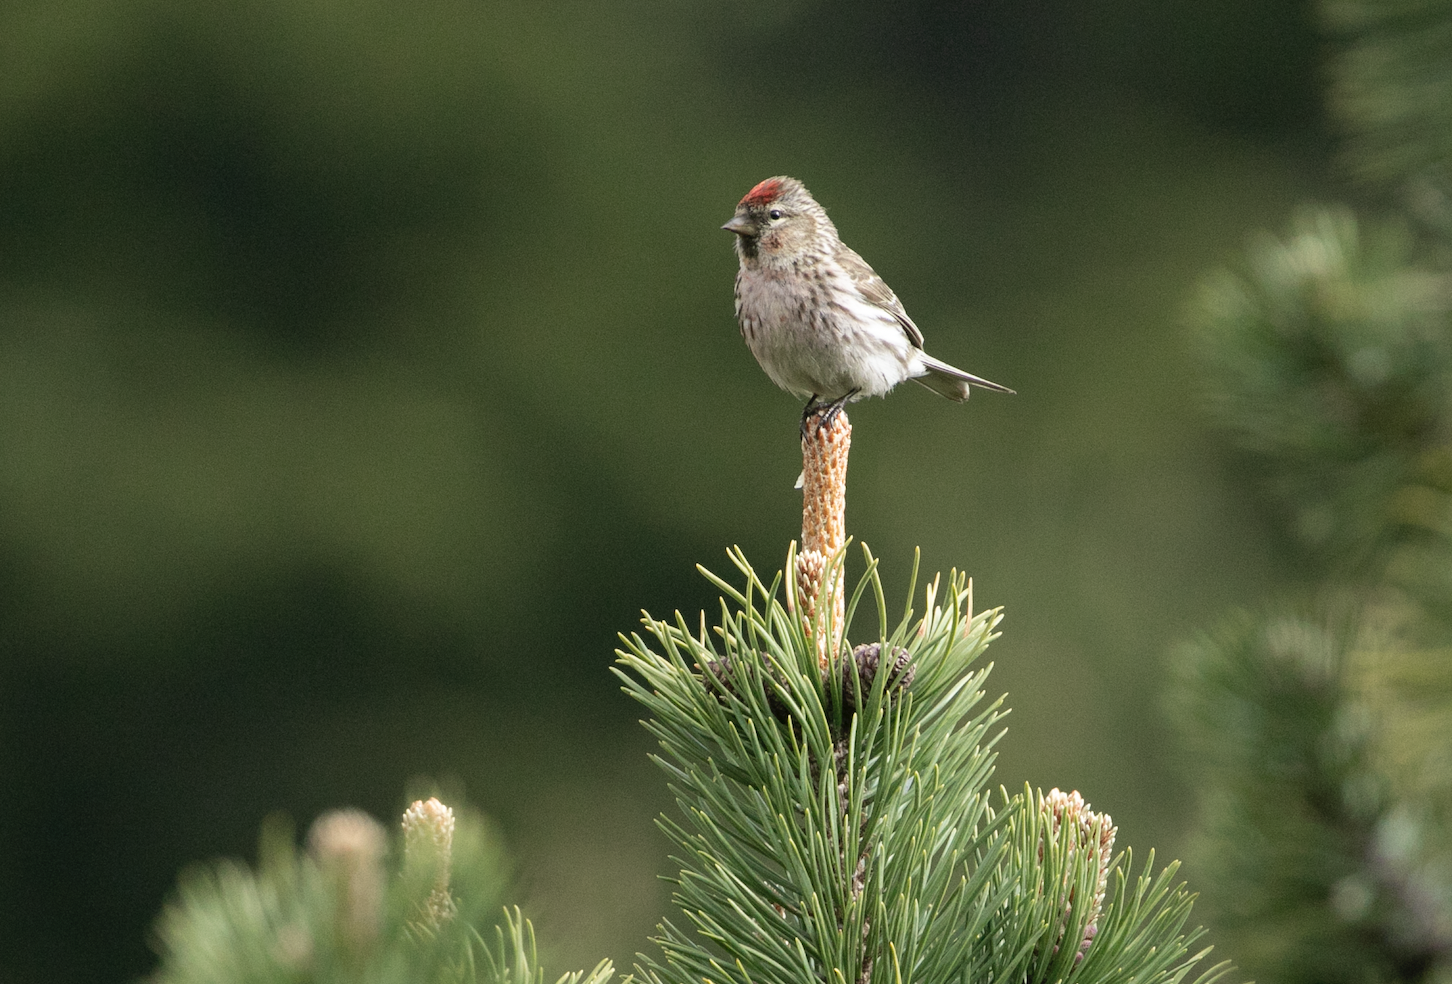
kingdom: Animalia
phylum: Chordata
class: Aves
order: Passeriformes
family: Fringillidae
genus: Acanthis
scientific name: Acanthis flammea
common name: Common redpoll
